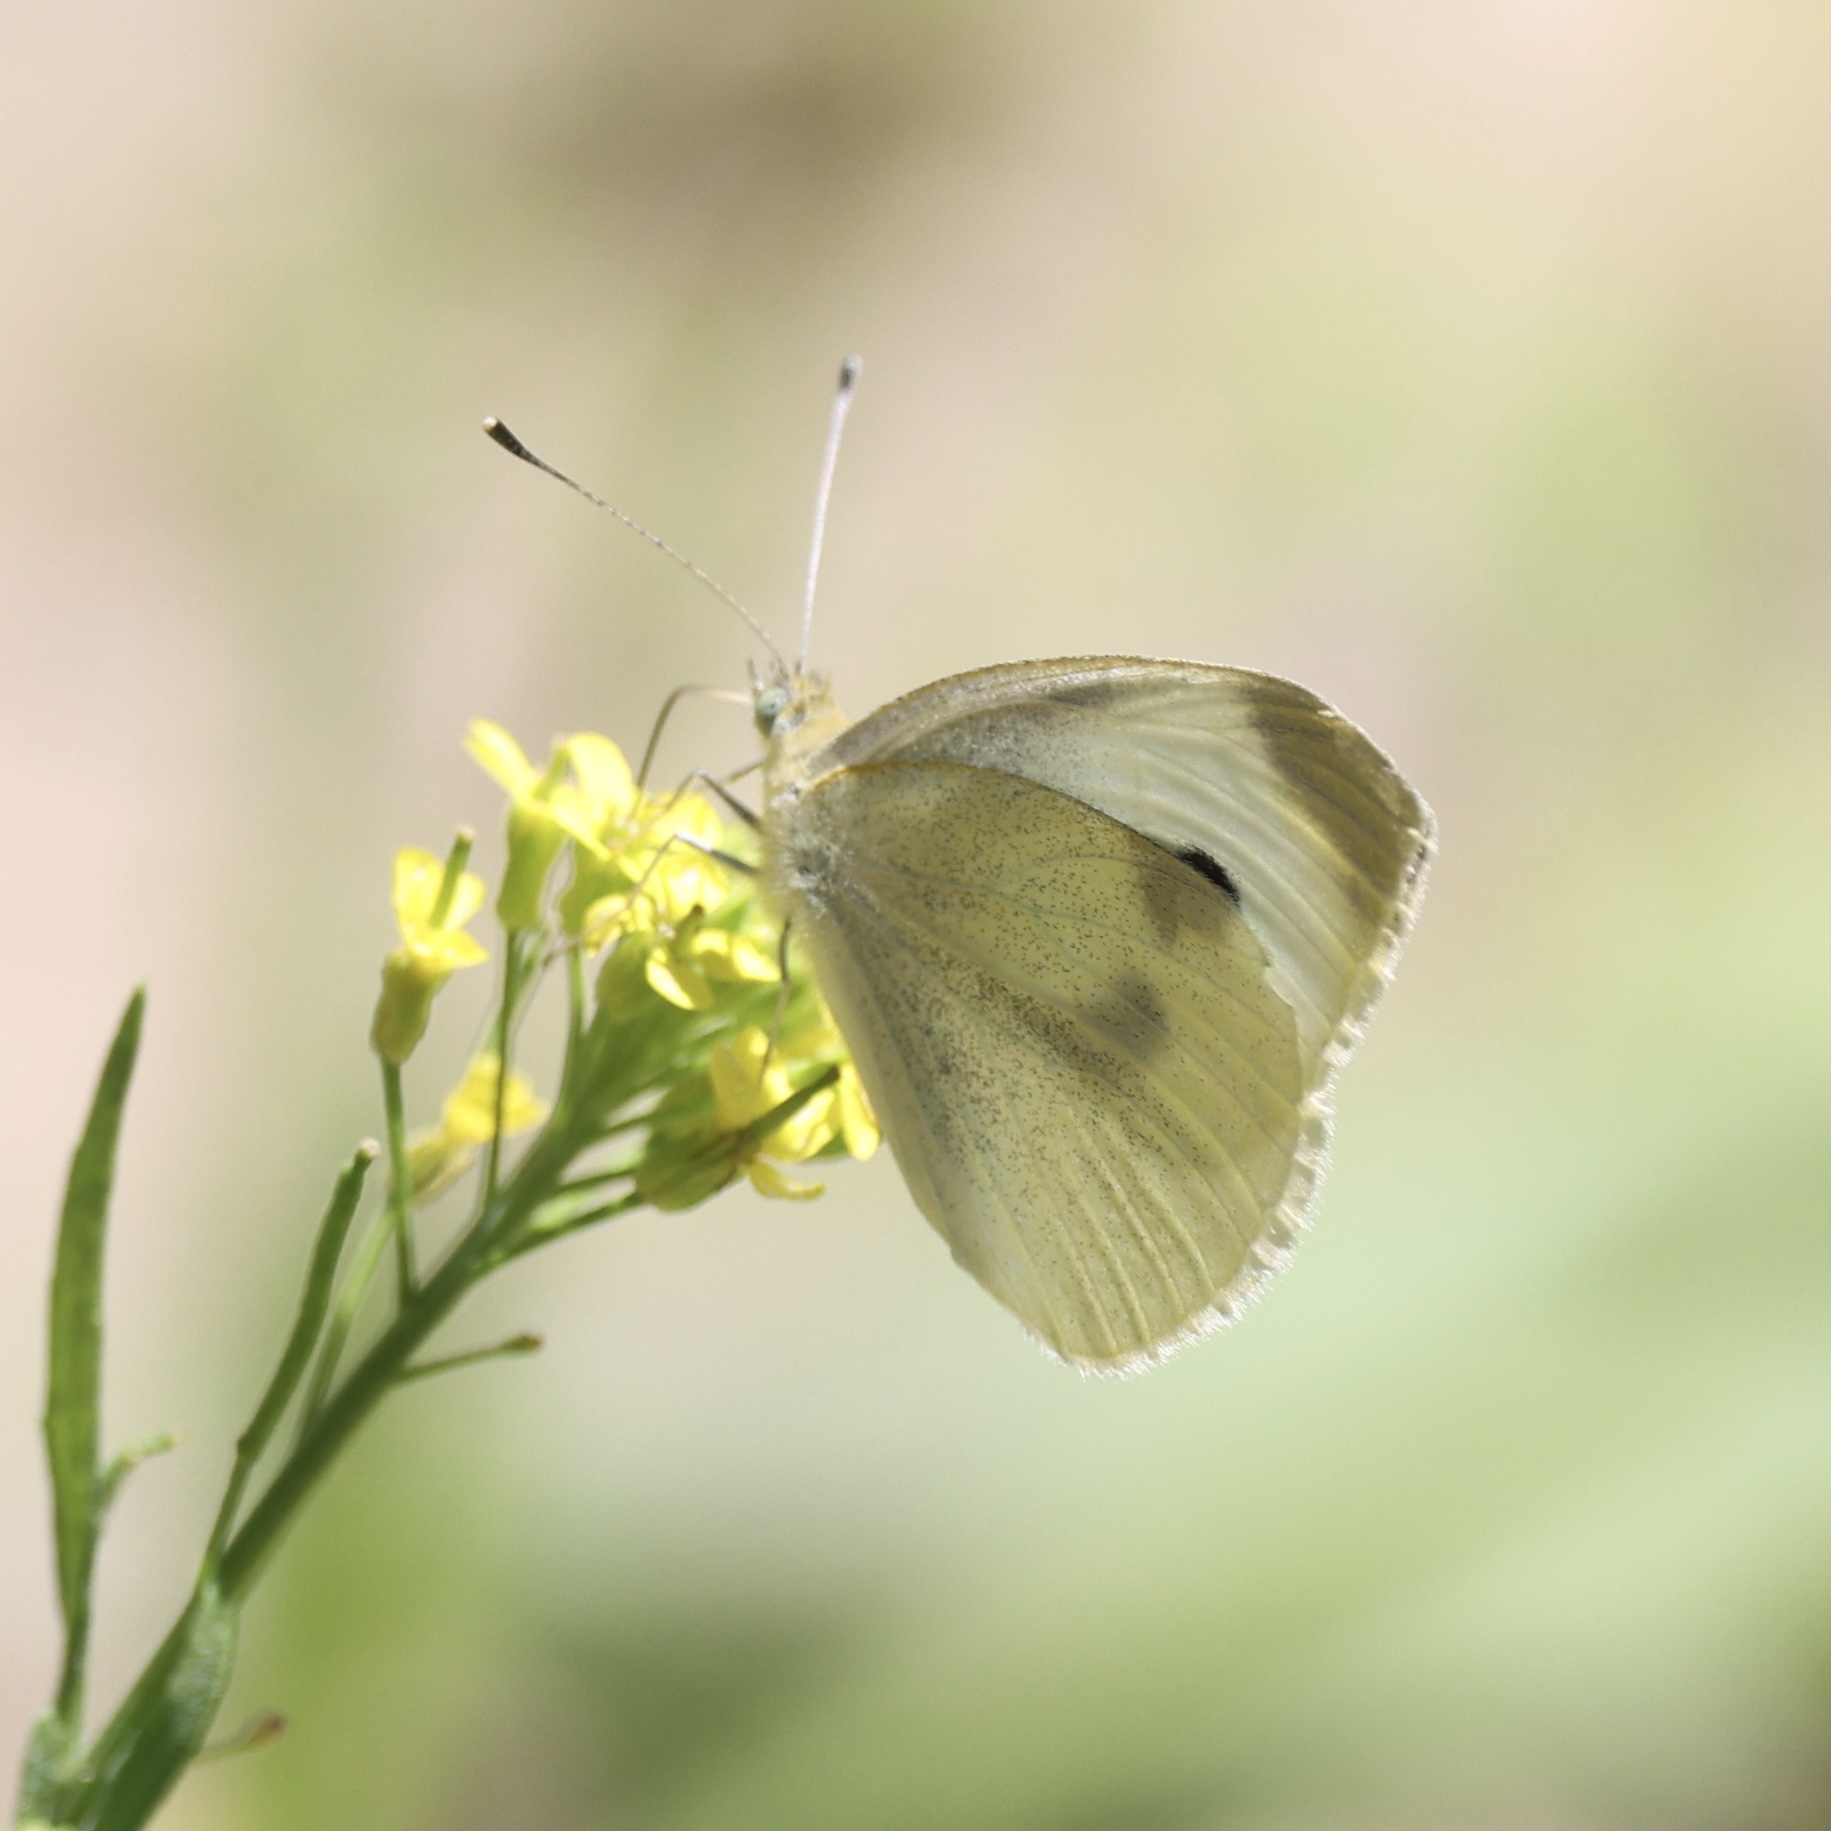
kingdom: Animalia
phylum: Arthropoda
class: Insecta
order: Lepidoptera
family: Pieridae
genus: Pieris
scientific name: Pieris rapae
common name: Small white
